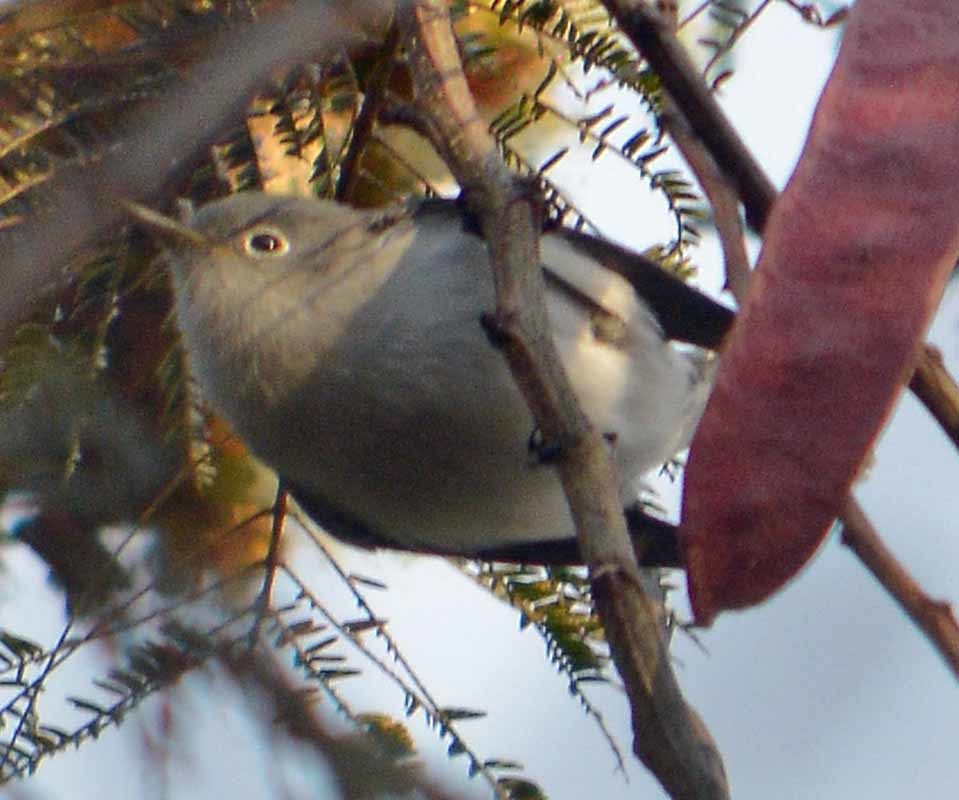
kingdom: Animalia
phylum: Chordata
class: Aves
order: Passeriformes
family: Polioptilidae
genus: Polioptila
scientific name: Polioptila caerulea
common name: Blue-gray gnatcatcher
